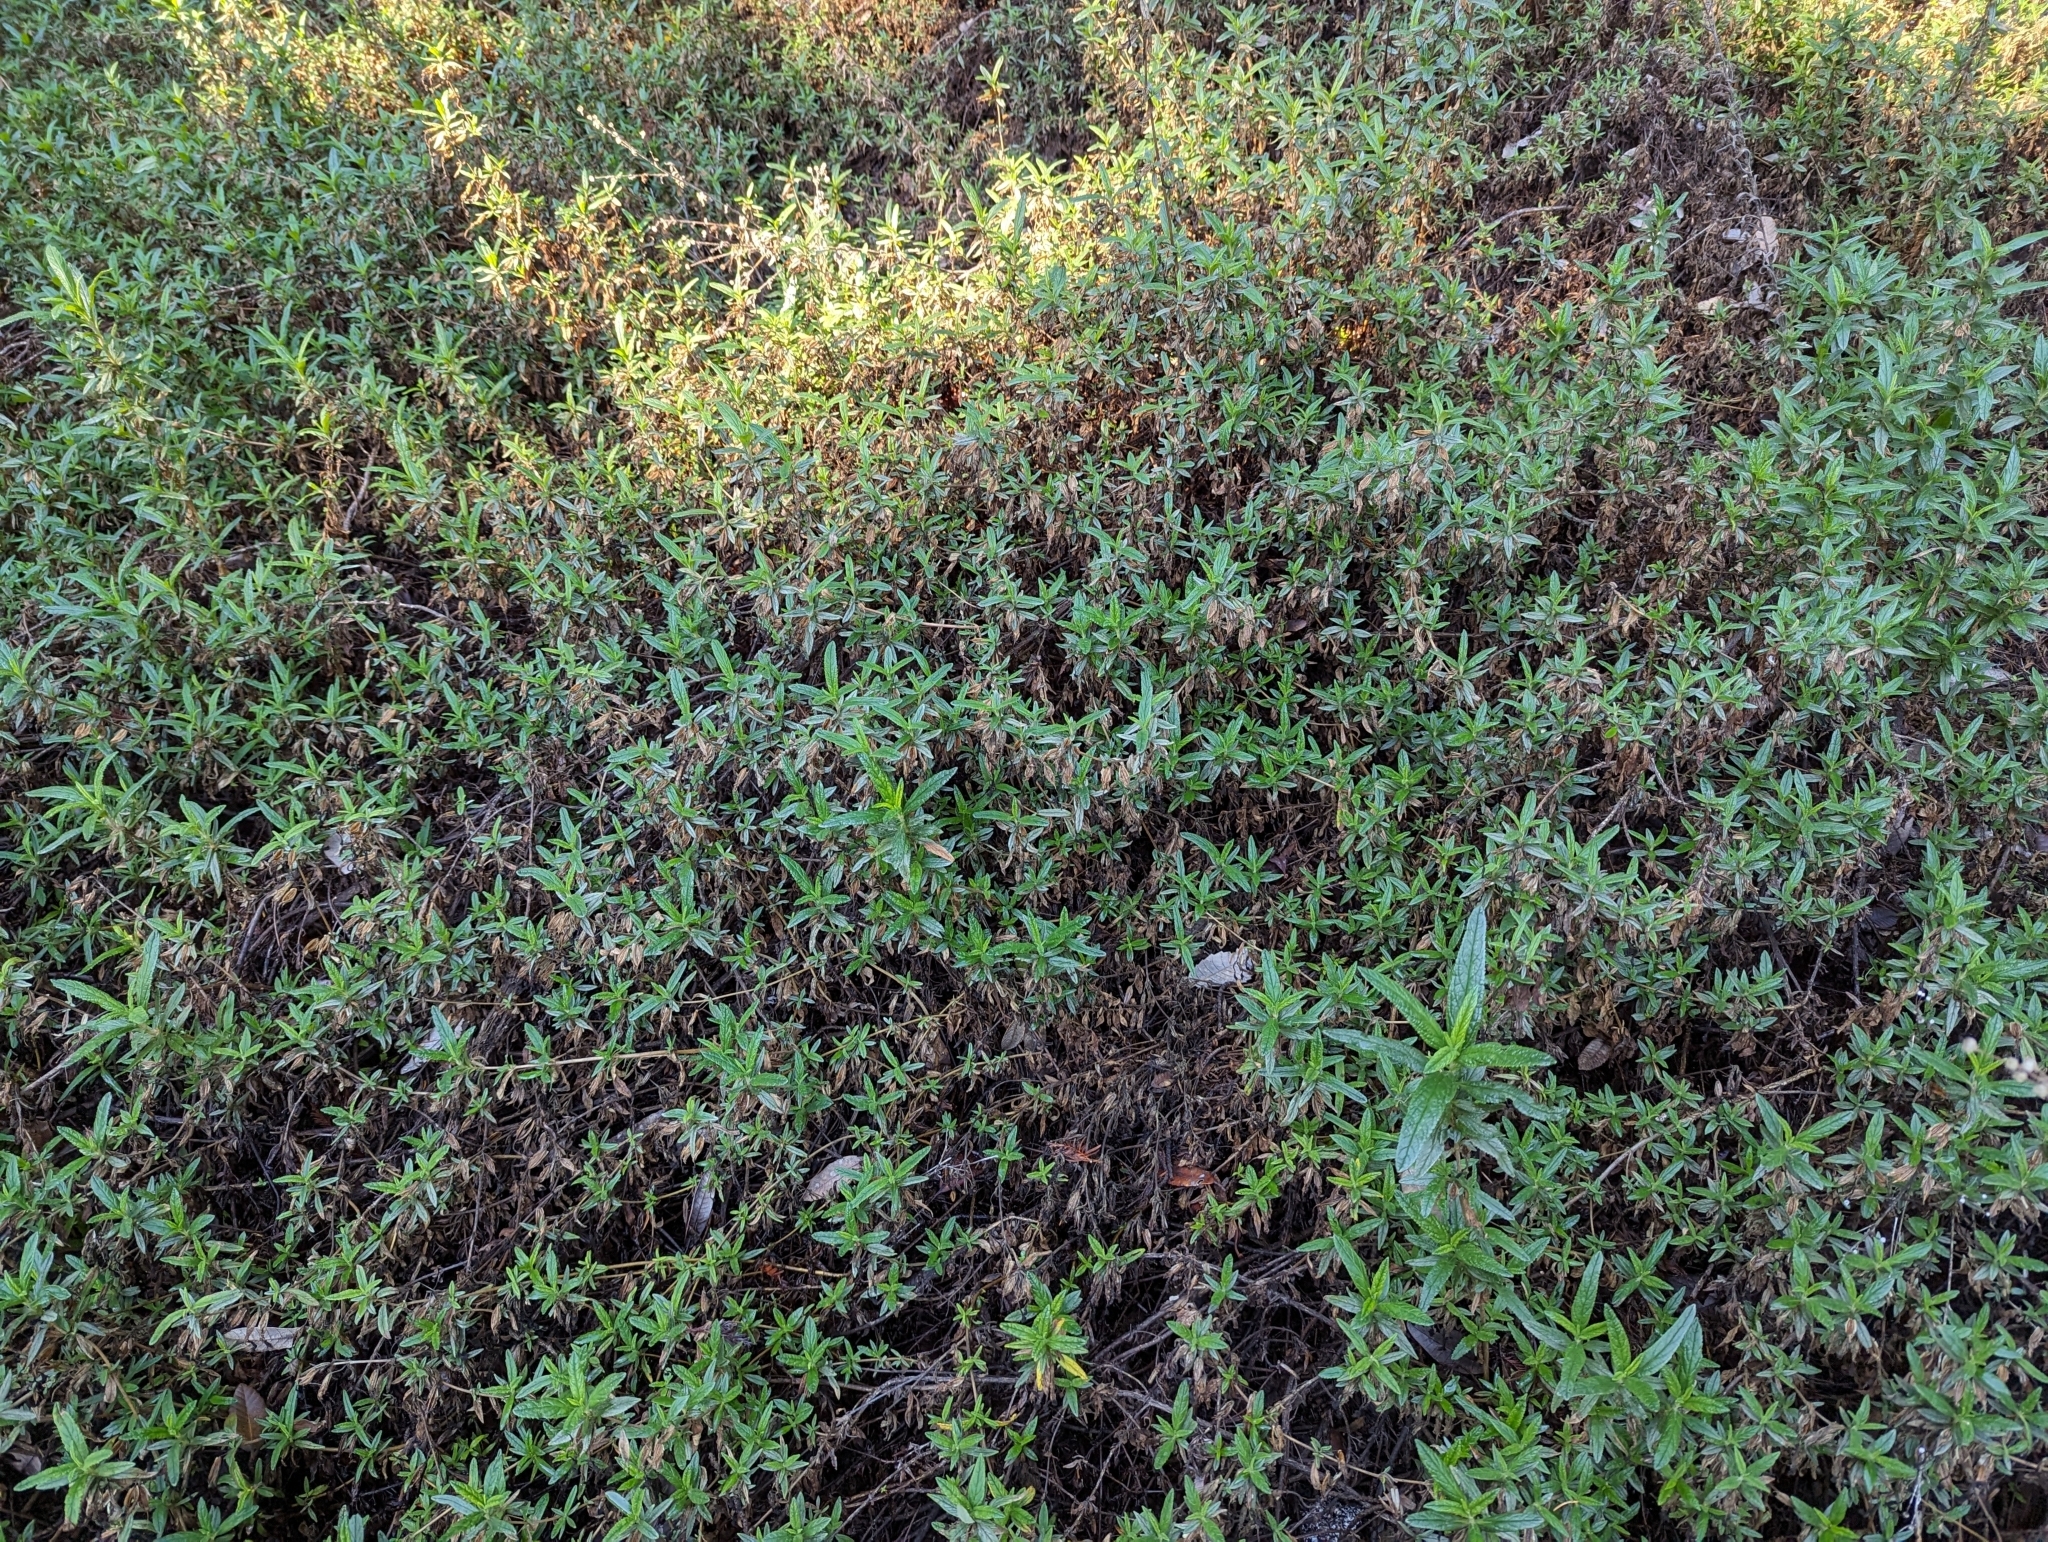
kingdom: Plantae
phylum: Tracheophyta
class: Magnoliopsida
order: Lamiales
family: Phrymaceae
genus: Diplacus
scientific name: Diplacus aurantiacus
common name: Bush monkey-flower
